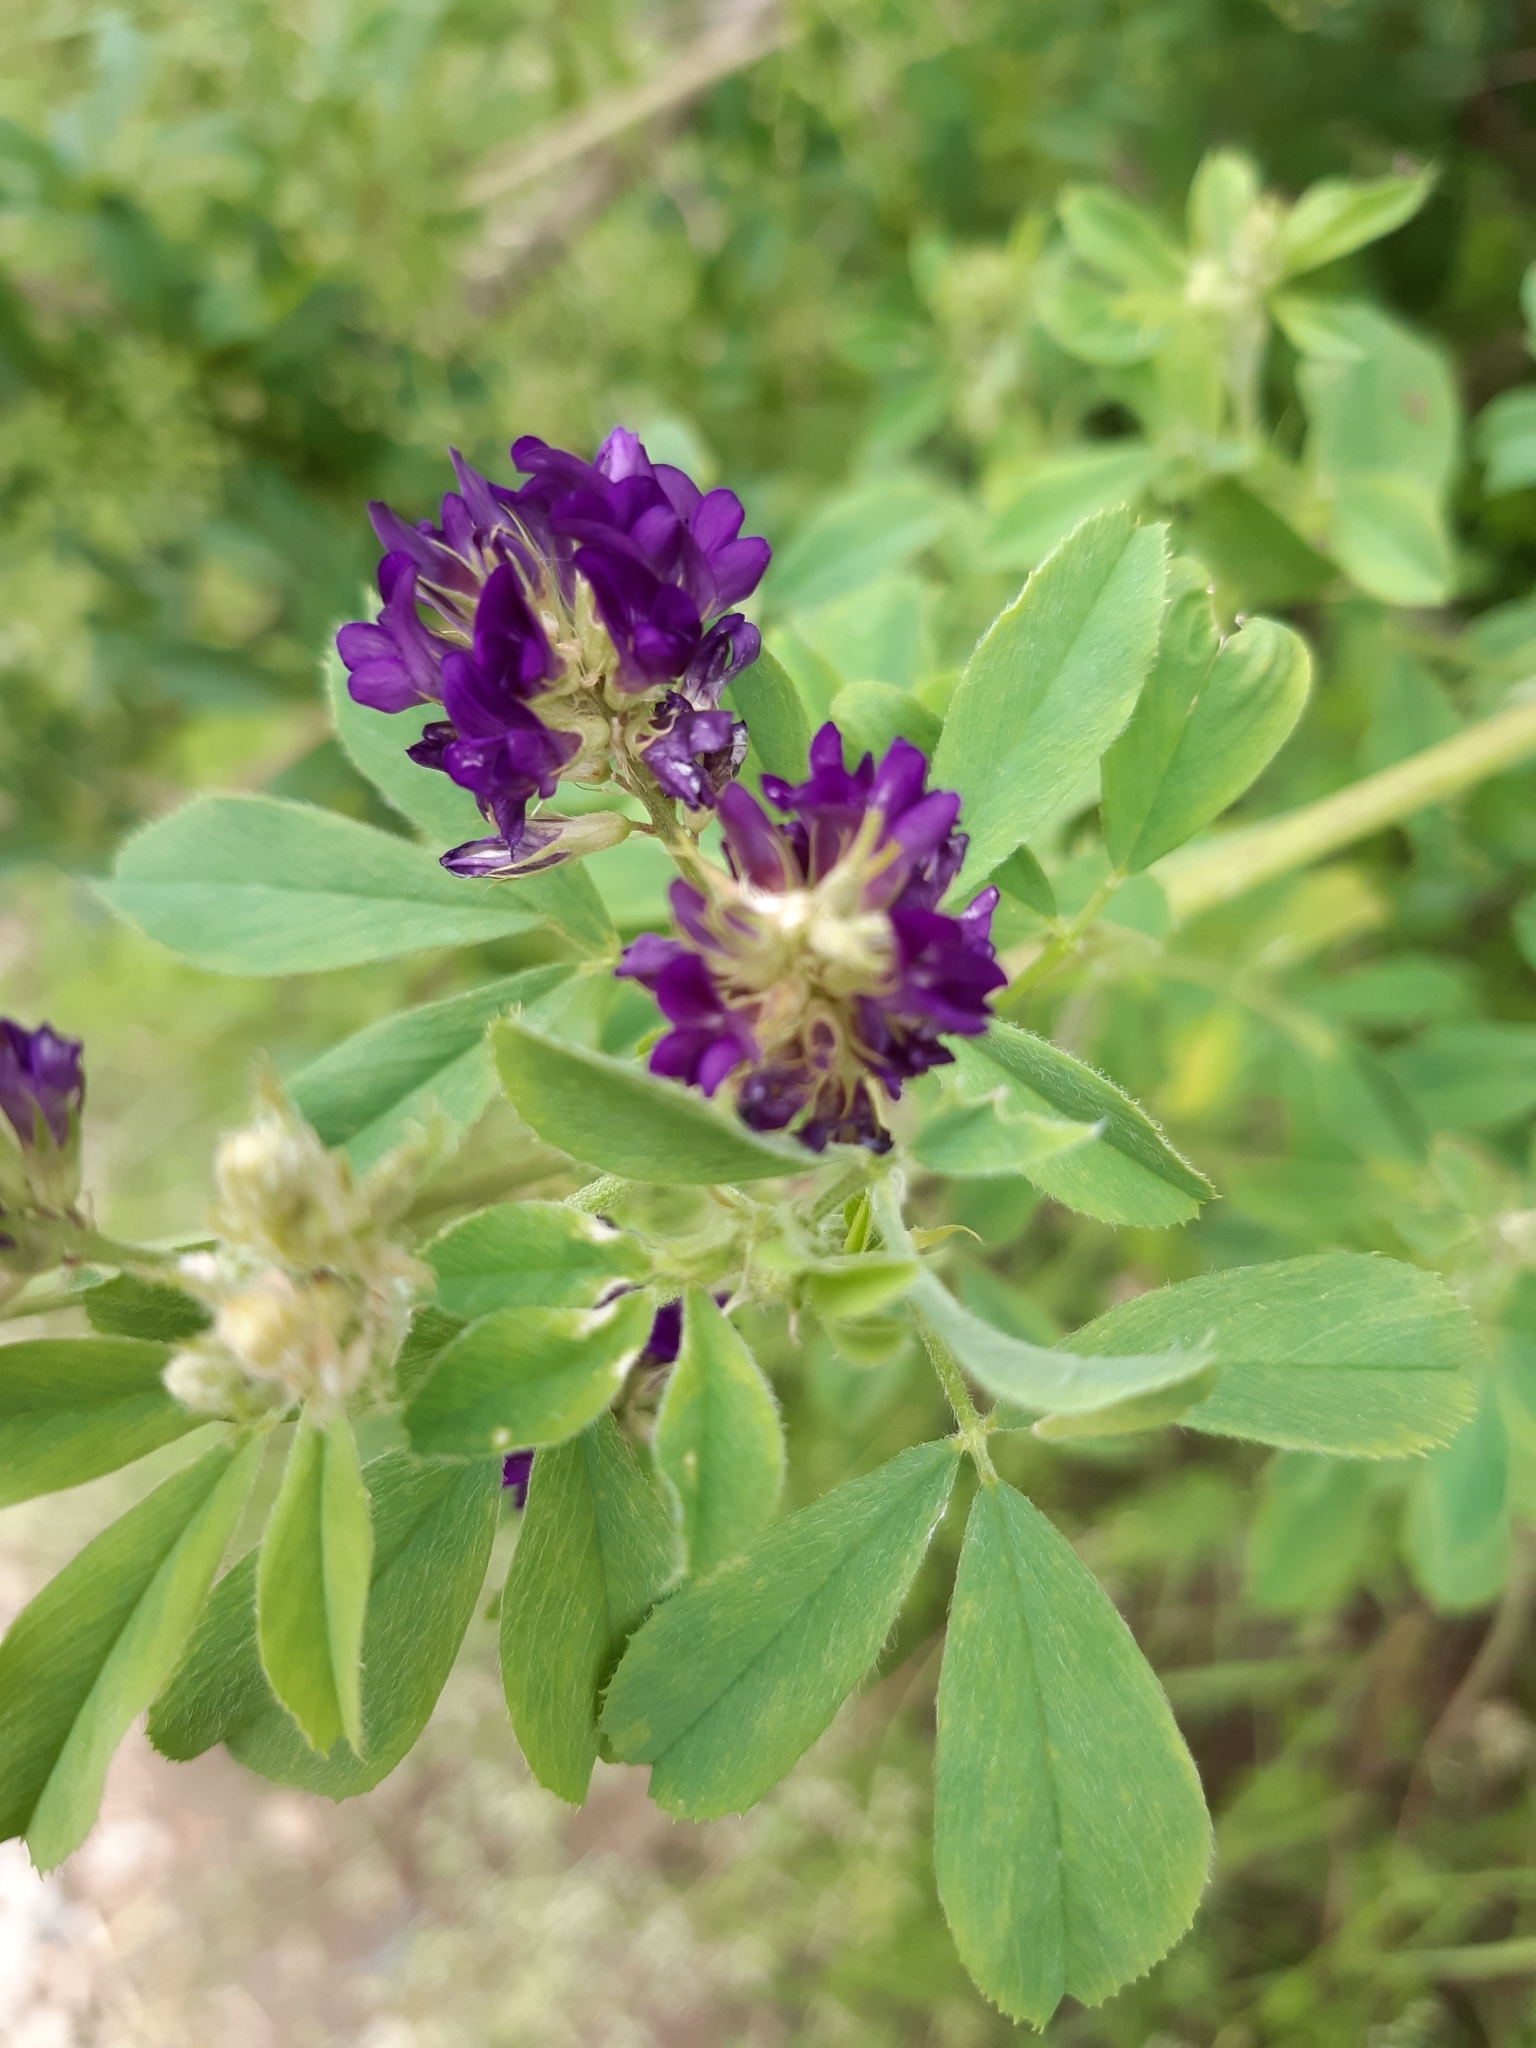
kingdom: Plantae
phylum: Tracheophyta
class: Magnoliopsida
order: Fabales
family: Fabaceae
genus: Medicago
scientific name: Medicago sativa
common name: Alfalfa
